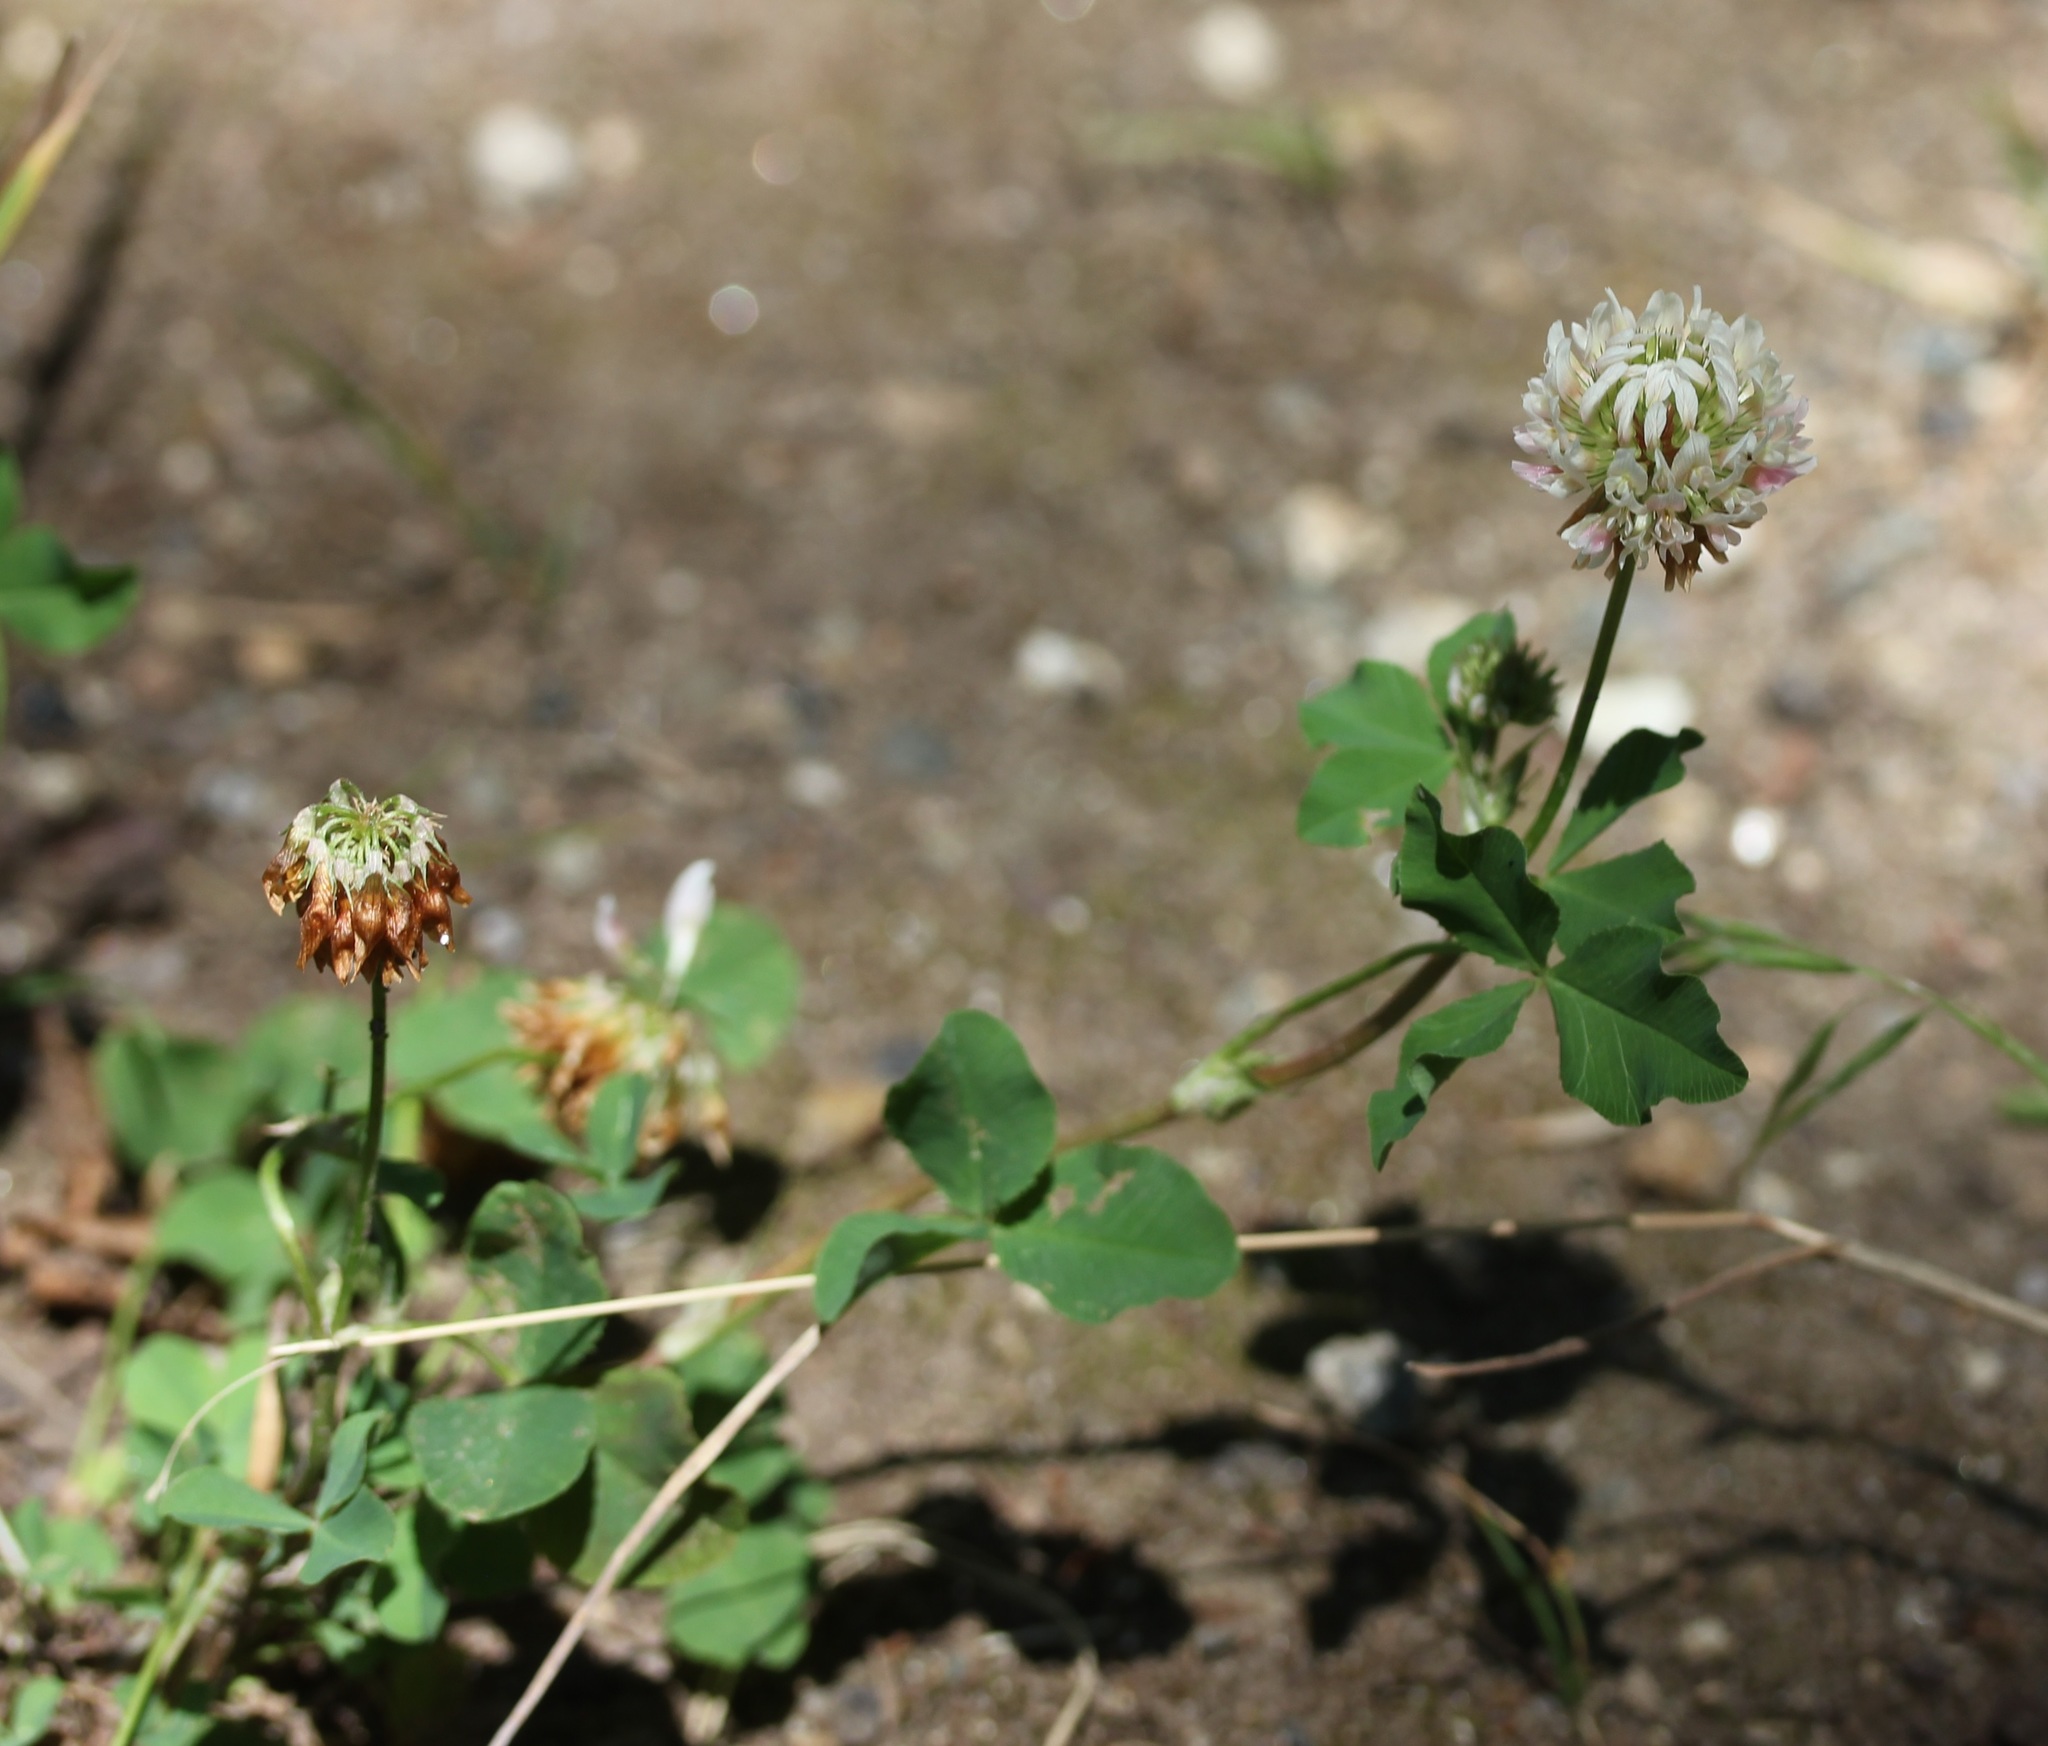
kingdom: Plantae
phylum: Tracheophyta
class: Magnoliopsida
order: Fabales
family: Fabaceae
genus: Trifolium
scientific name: Trifolium hybridum
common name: Alsike clover
